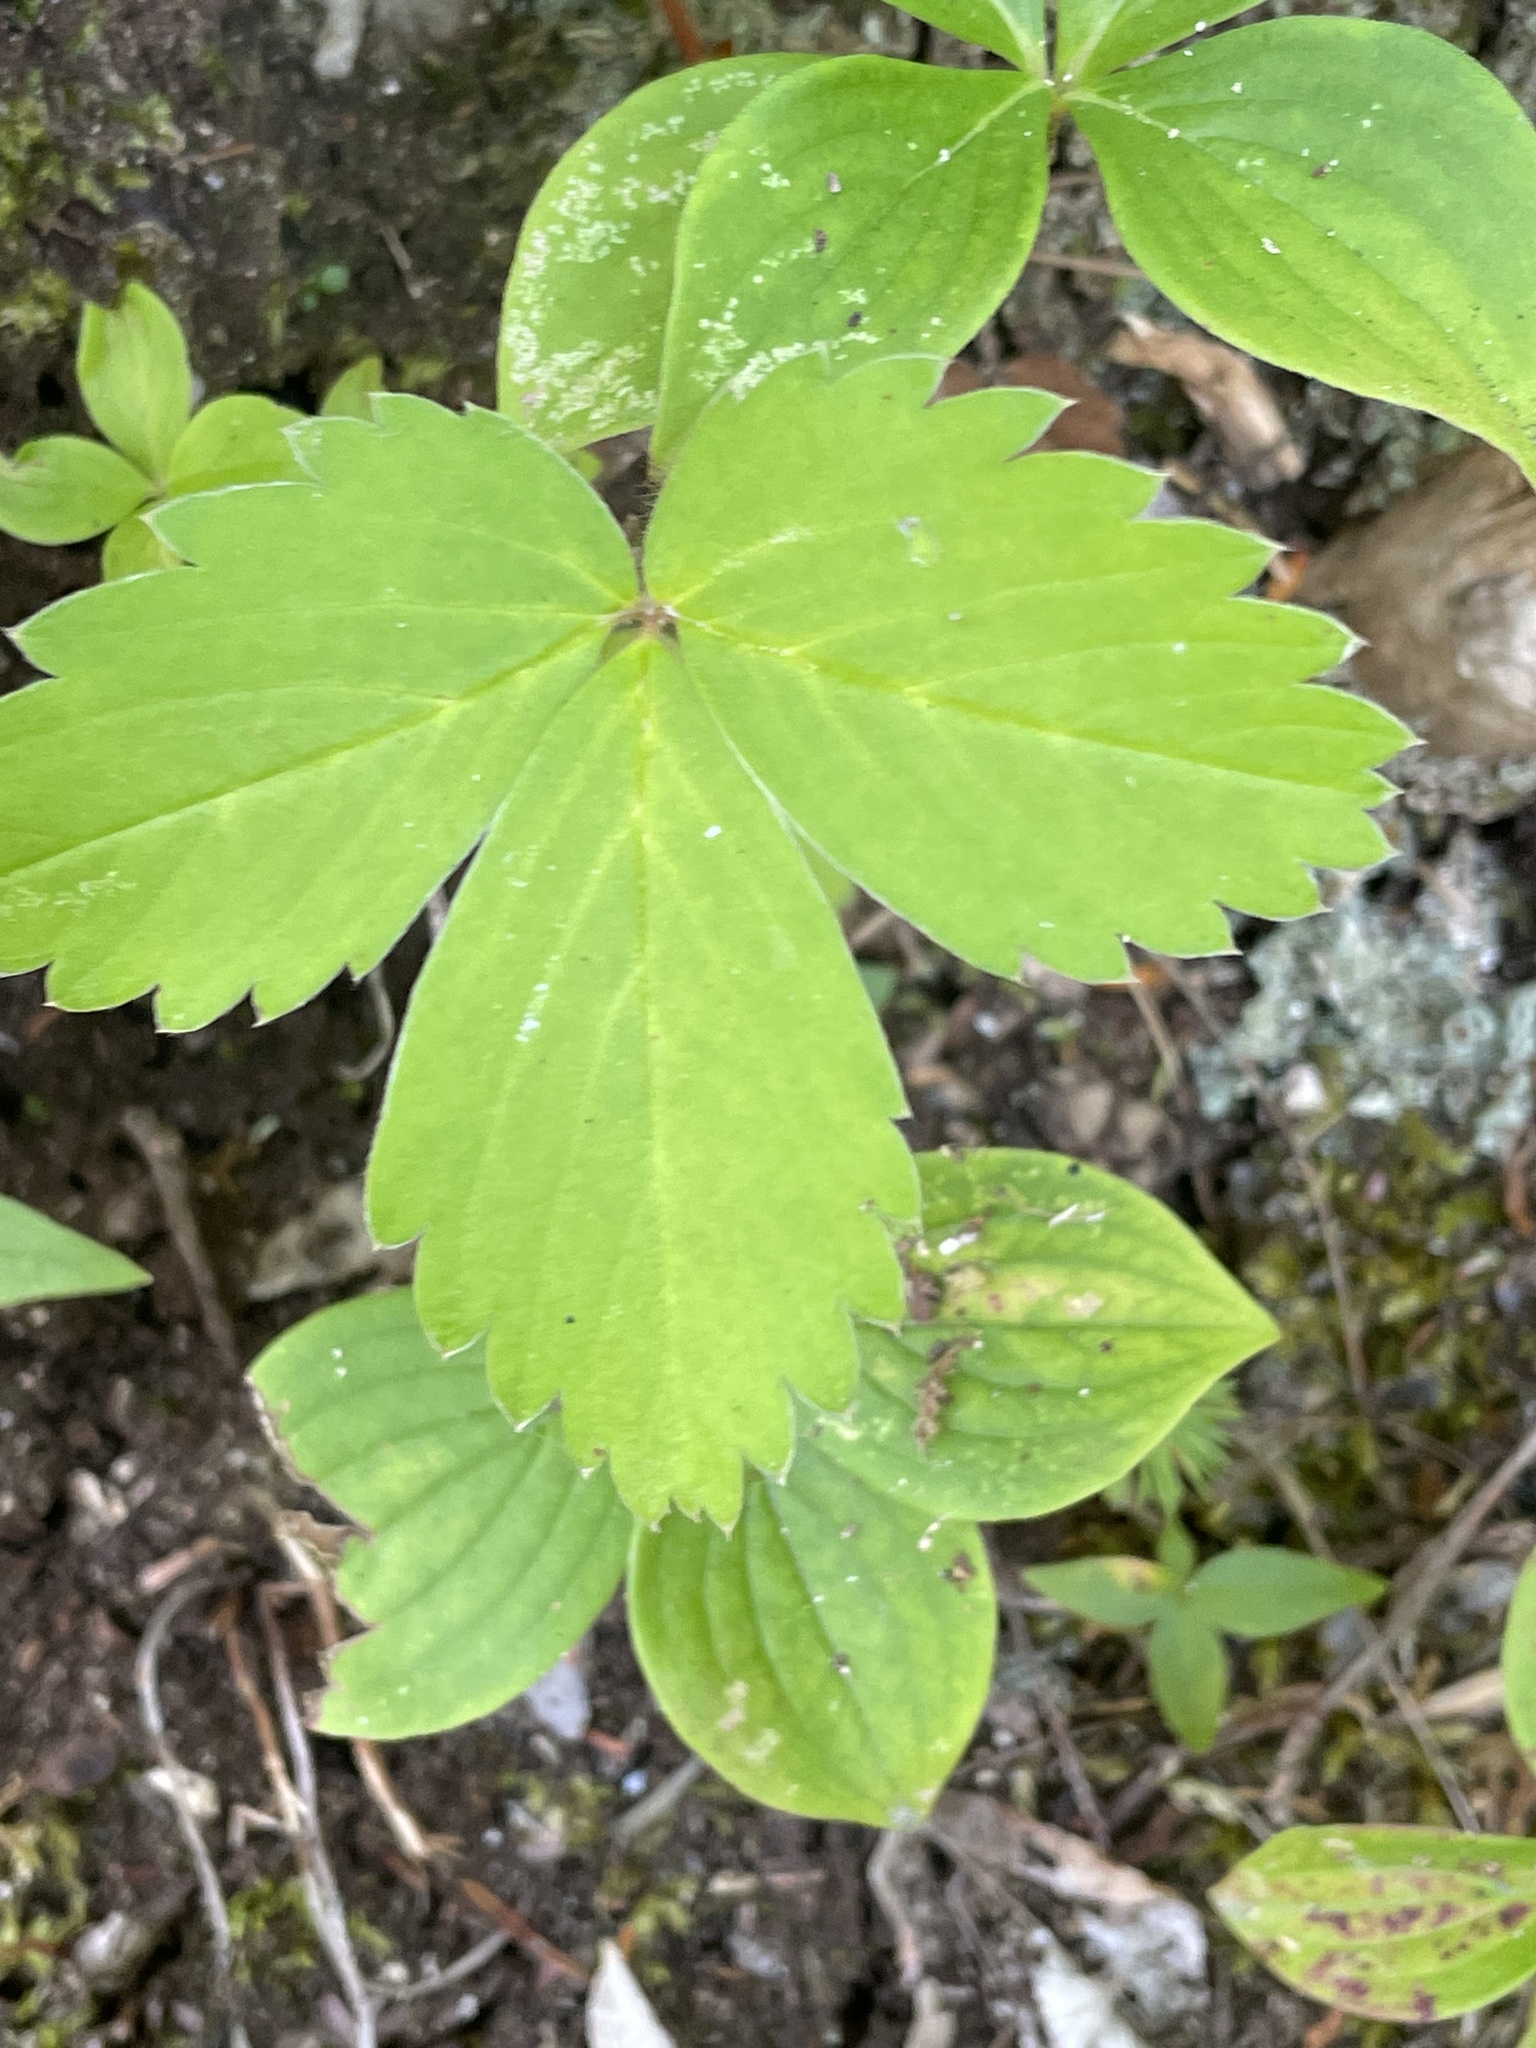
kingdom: Plantae
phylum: Tracheophyta
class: Magnoliopsida
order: Rosales
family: Rosaceae
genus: Fragaria
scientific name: Fragaria virginiana
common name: Thickleaved wild strawberry
